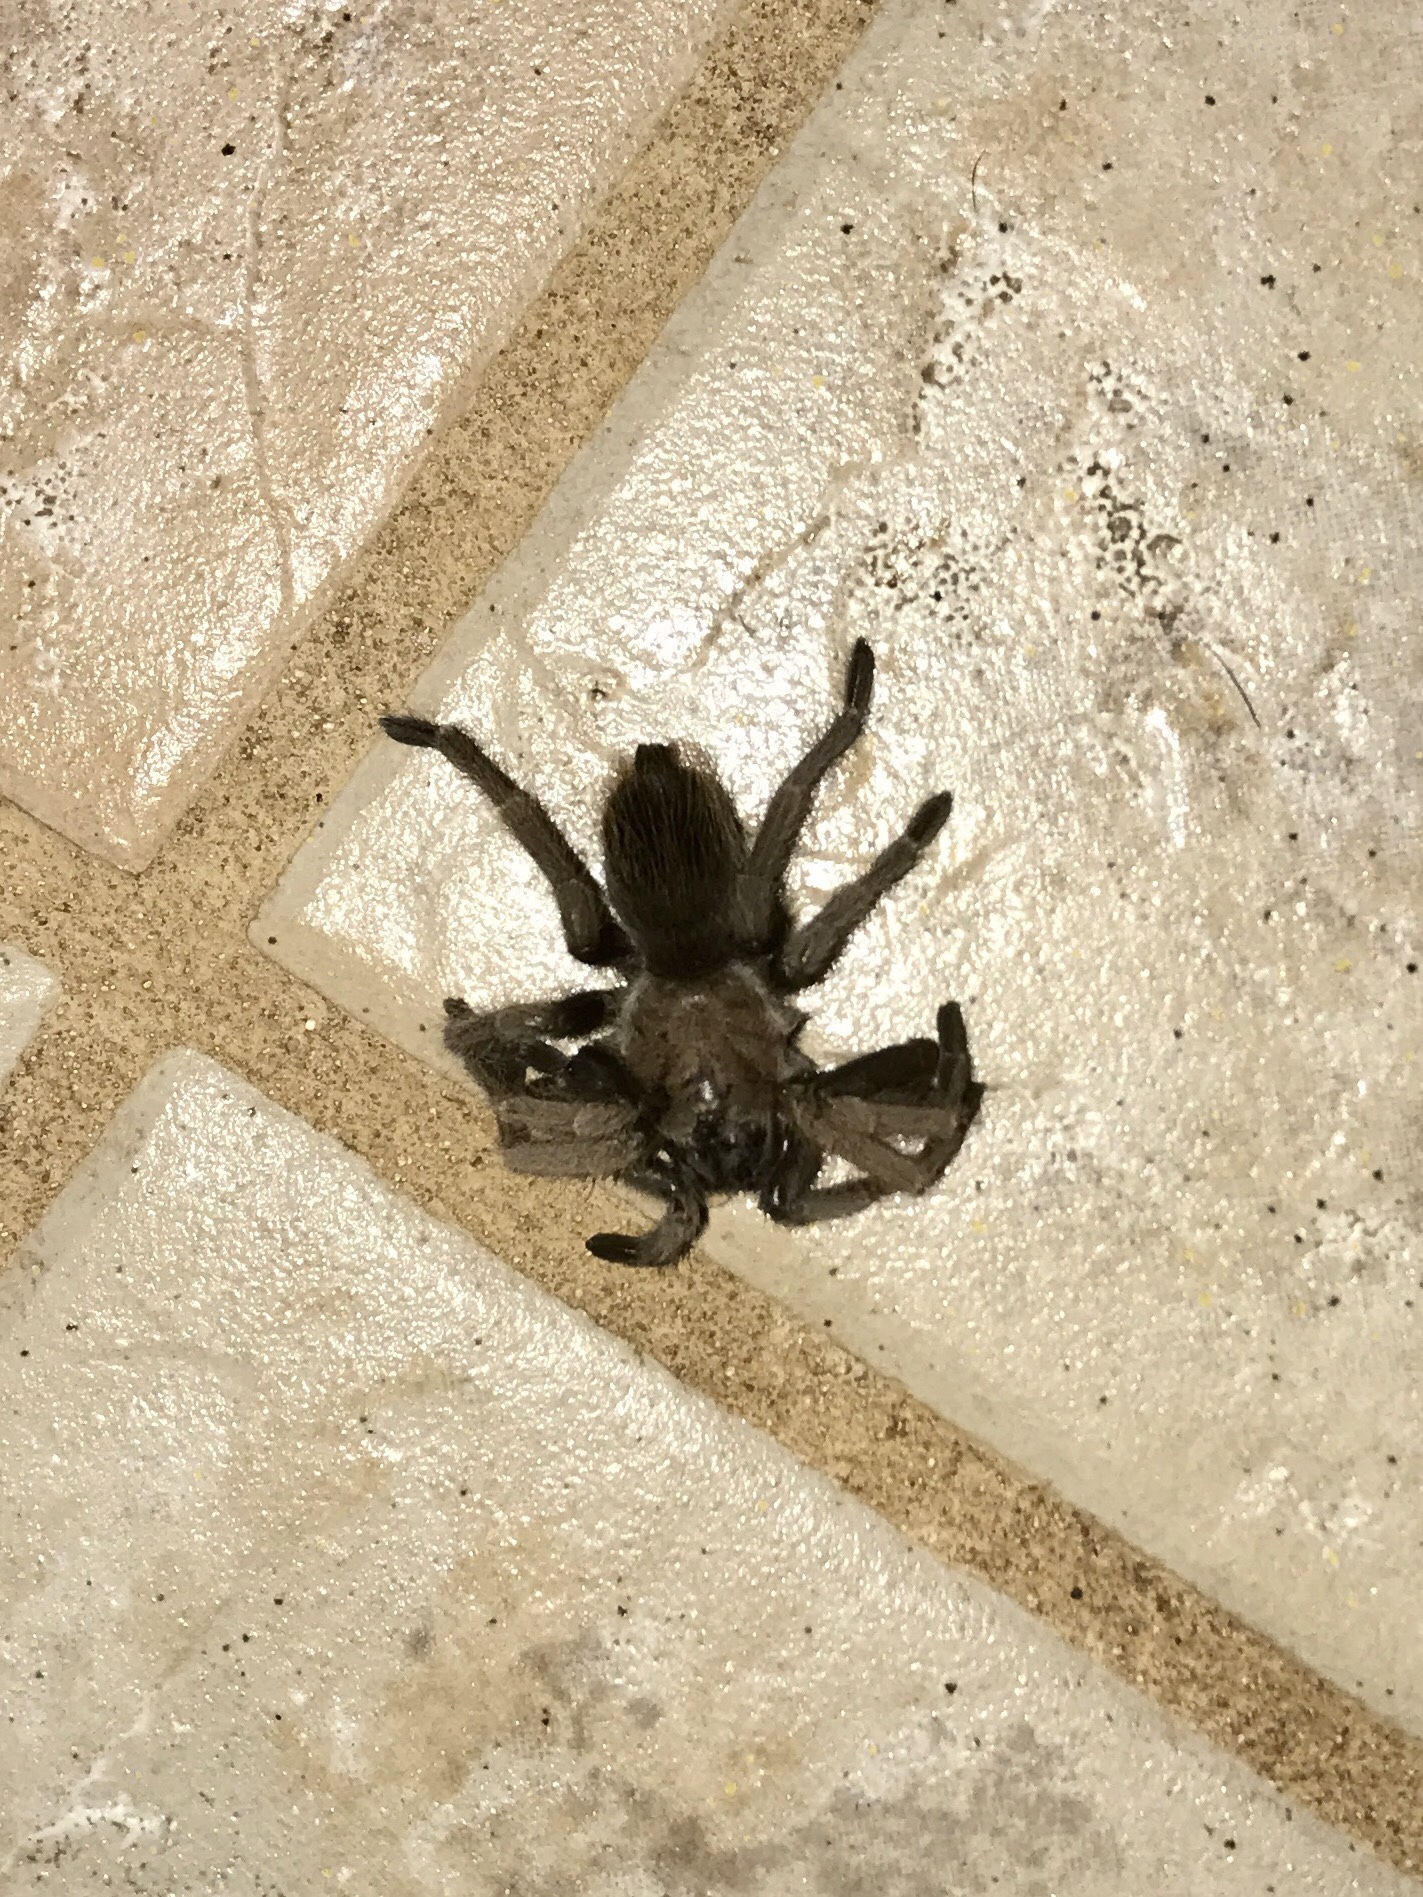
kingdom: Animalia
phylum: Arthropoda
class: Arachnida
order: Araneae
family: Theraphosidae
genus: Aphonopelma
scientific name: Aphonopelma chalcodes
